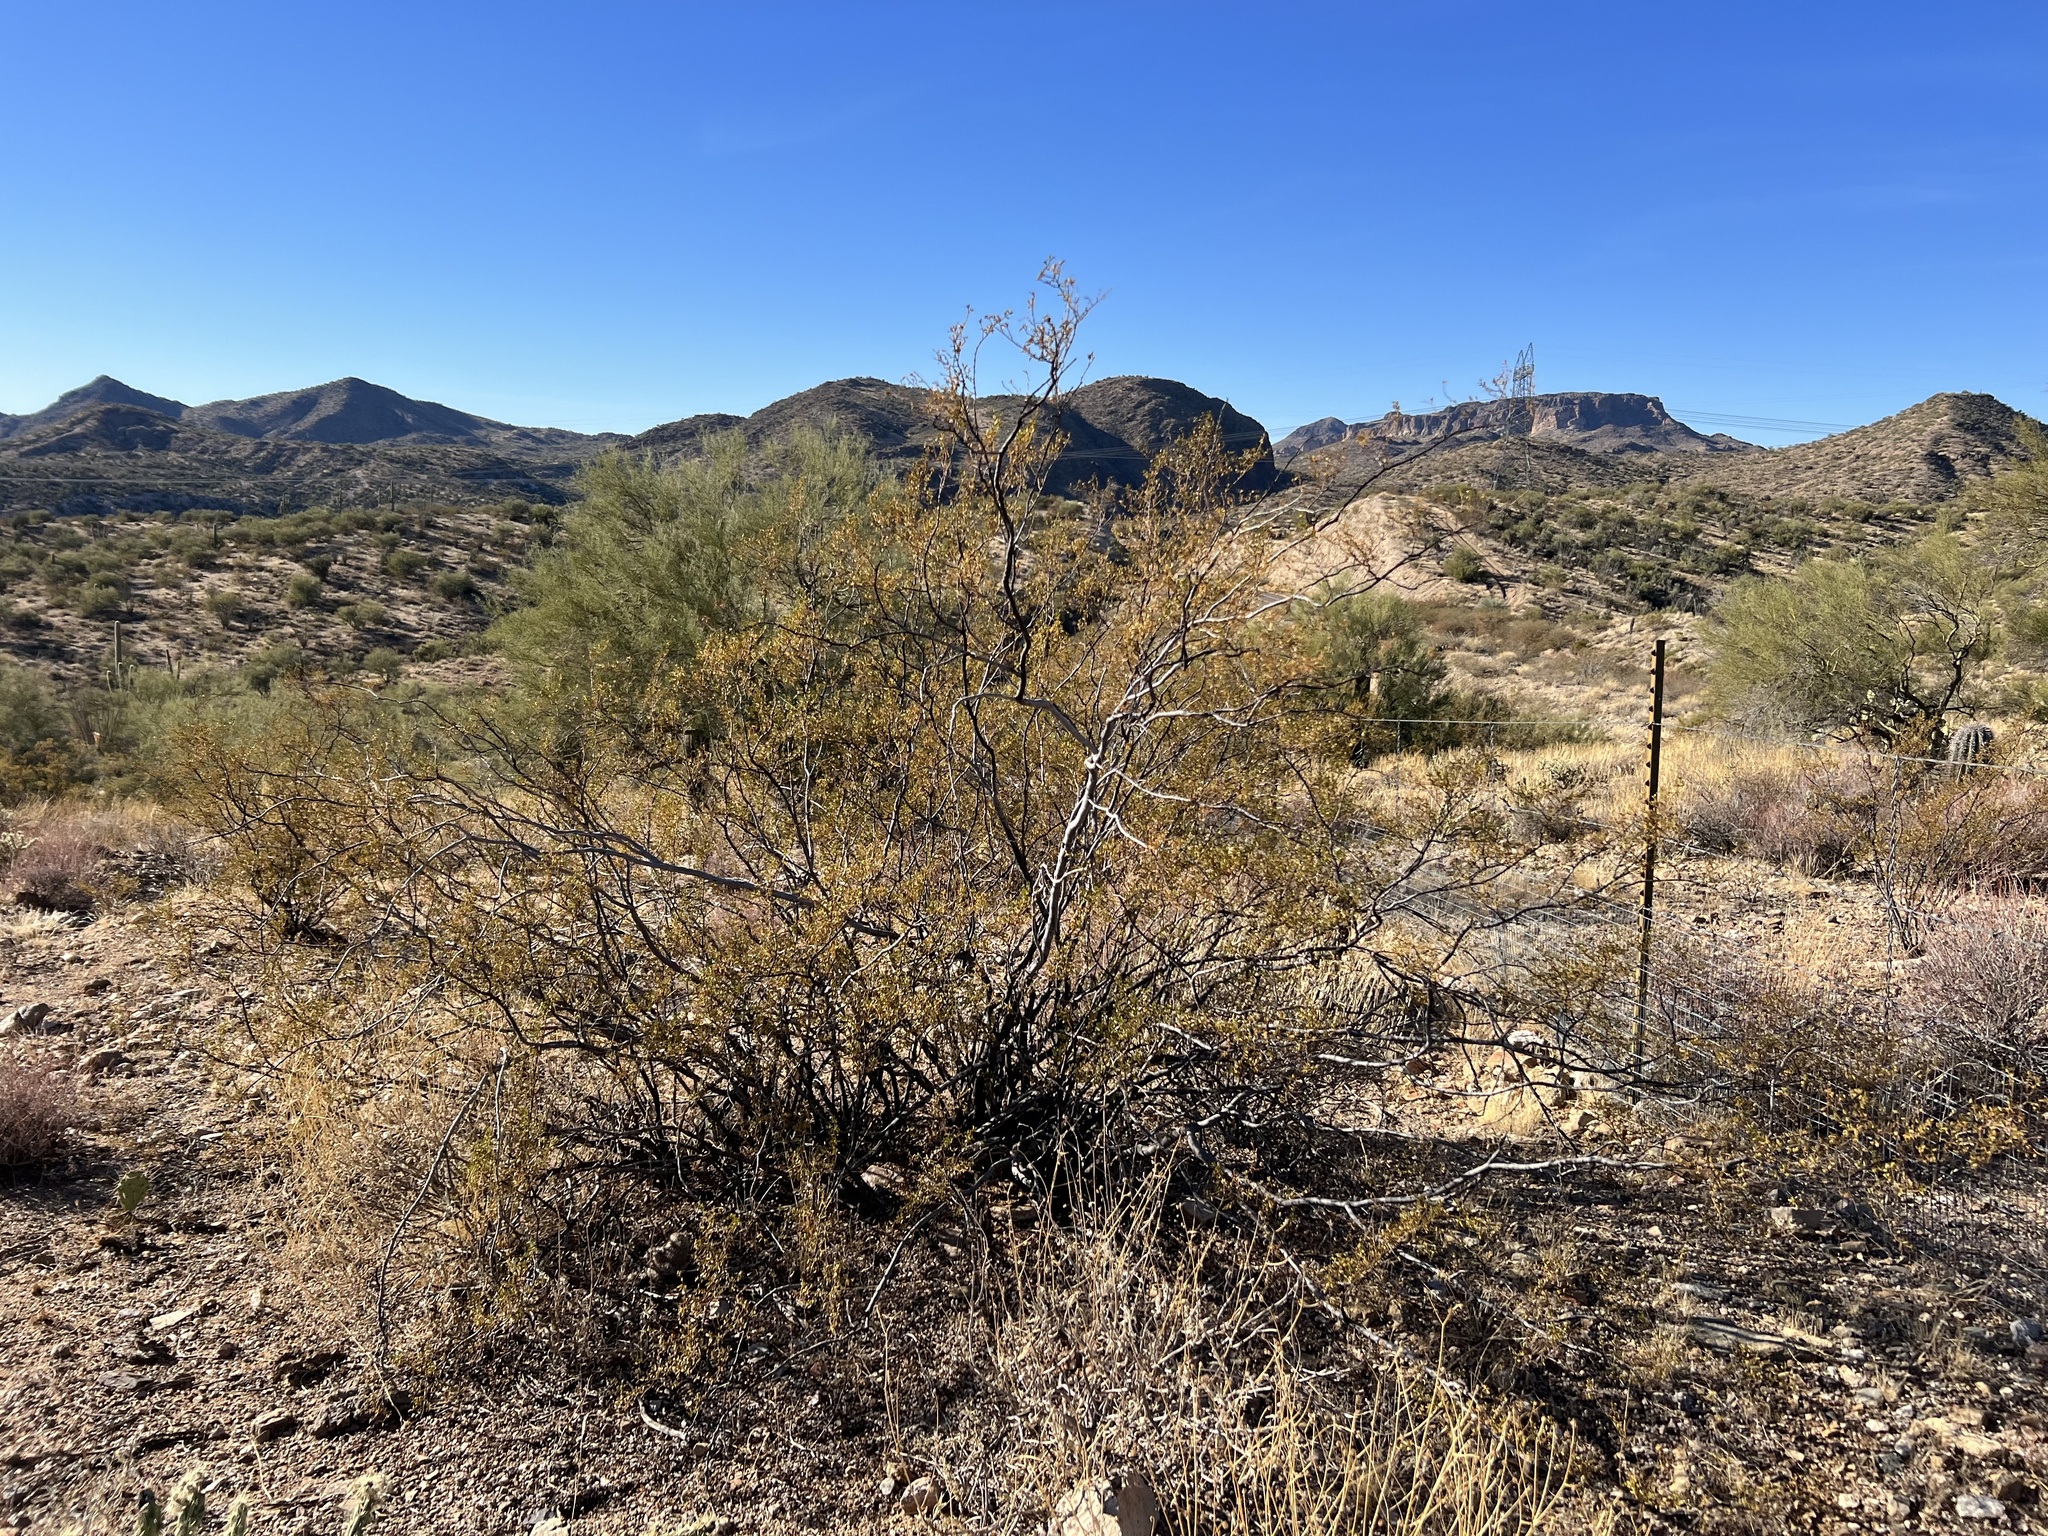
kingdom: Plantae
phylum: Tracheophyta
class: Magnoliopsida
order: Zygophyllales
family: Zygophyllaceae
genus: Larrea
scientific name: Larrea tridentata
